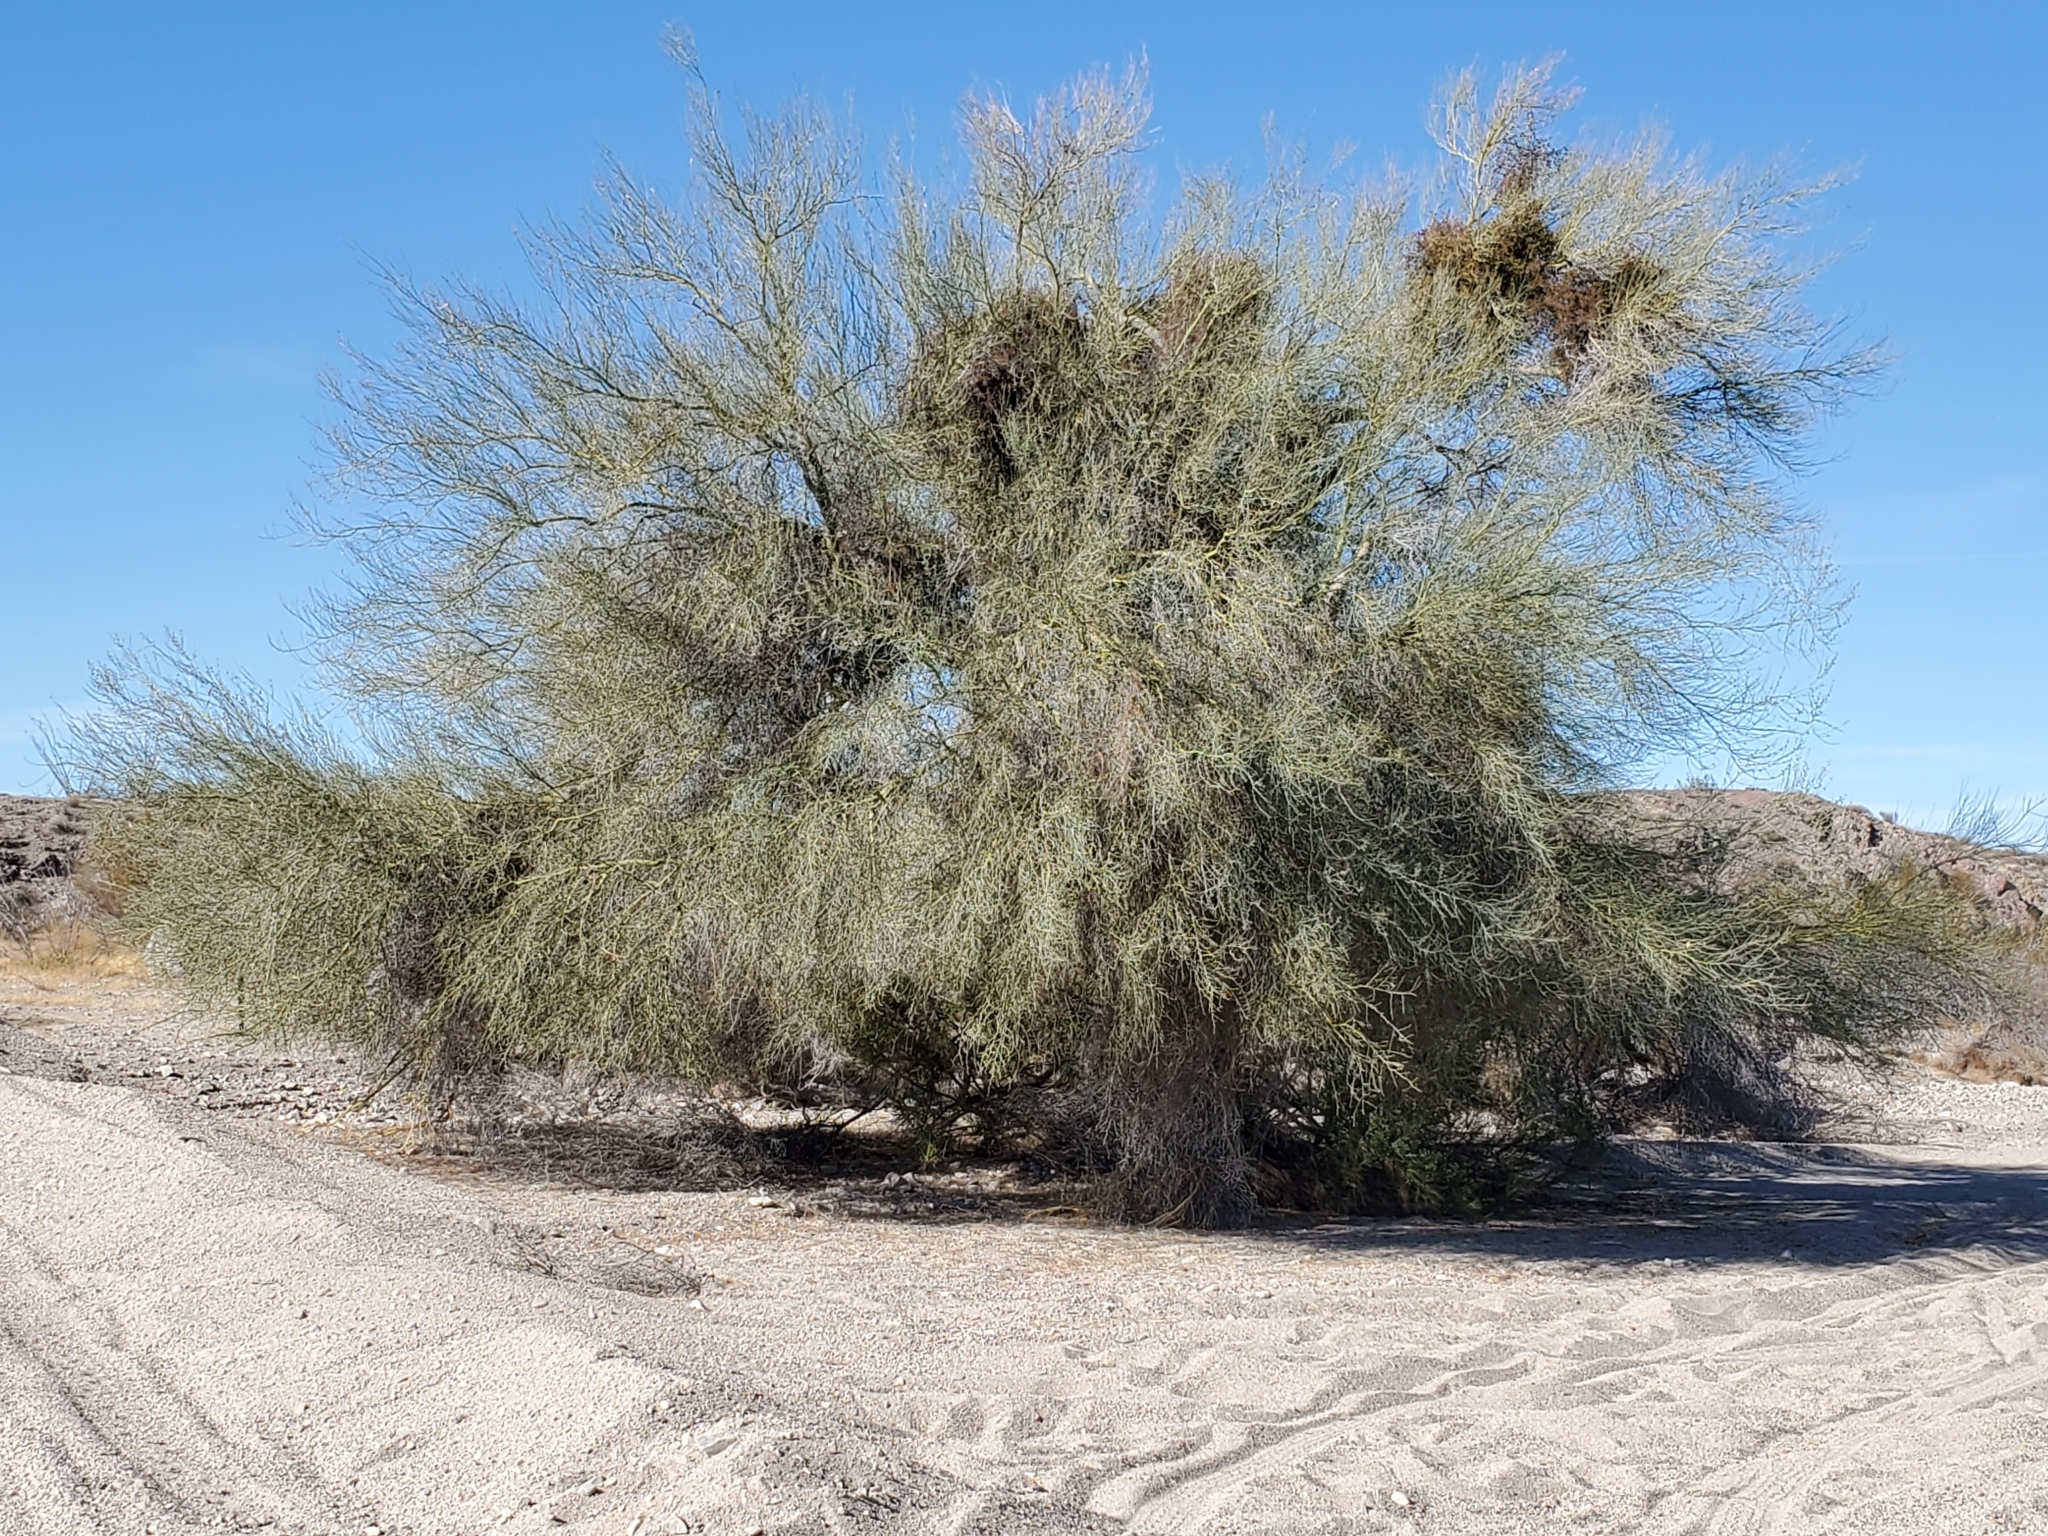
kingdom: Plantae
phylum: Tracheophyta
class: Magnoliopsida
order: Santalales
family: Viscaceae
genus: Phoradendron
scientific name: Phoradendron californicum
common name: Acacia mistletoe
